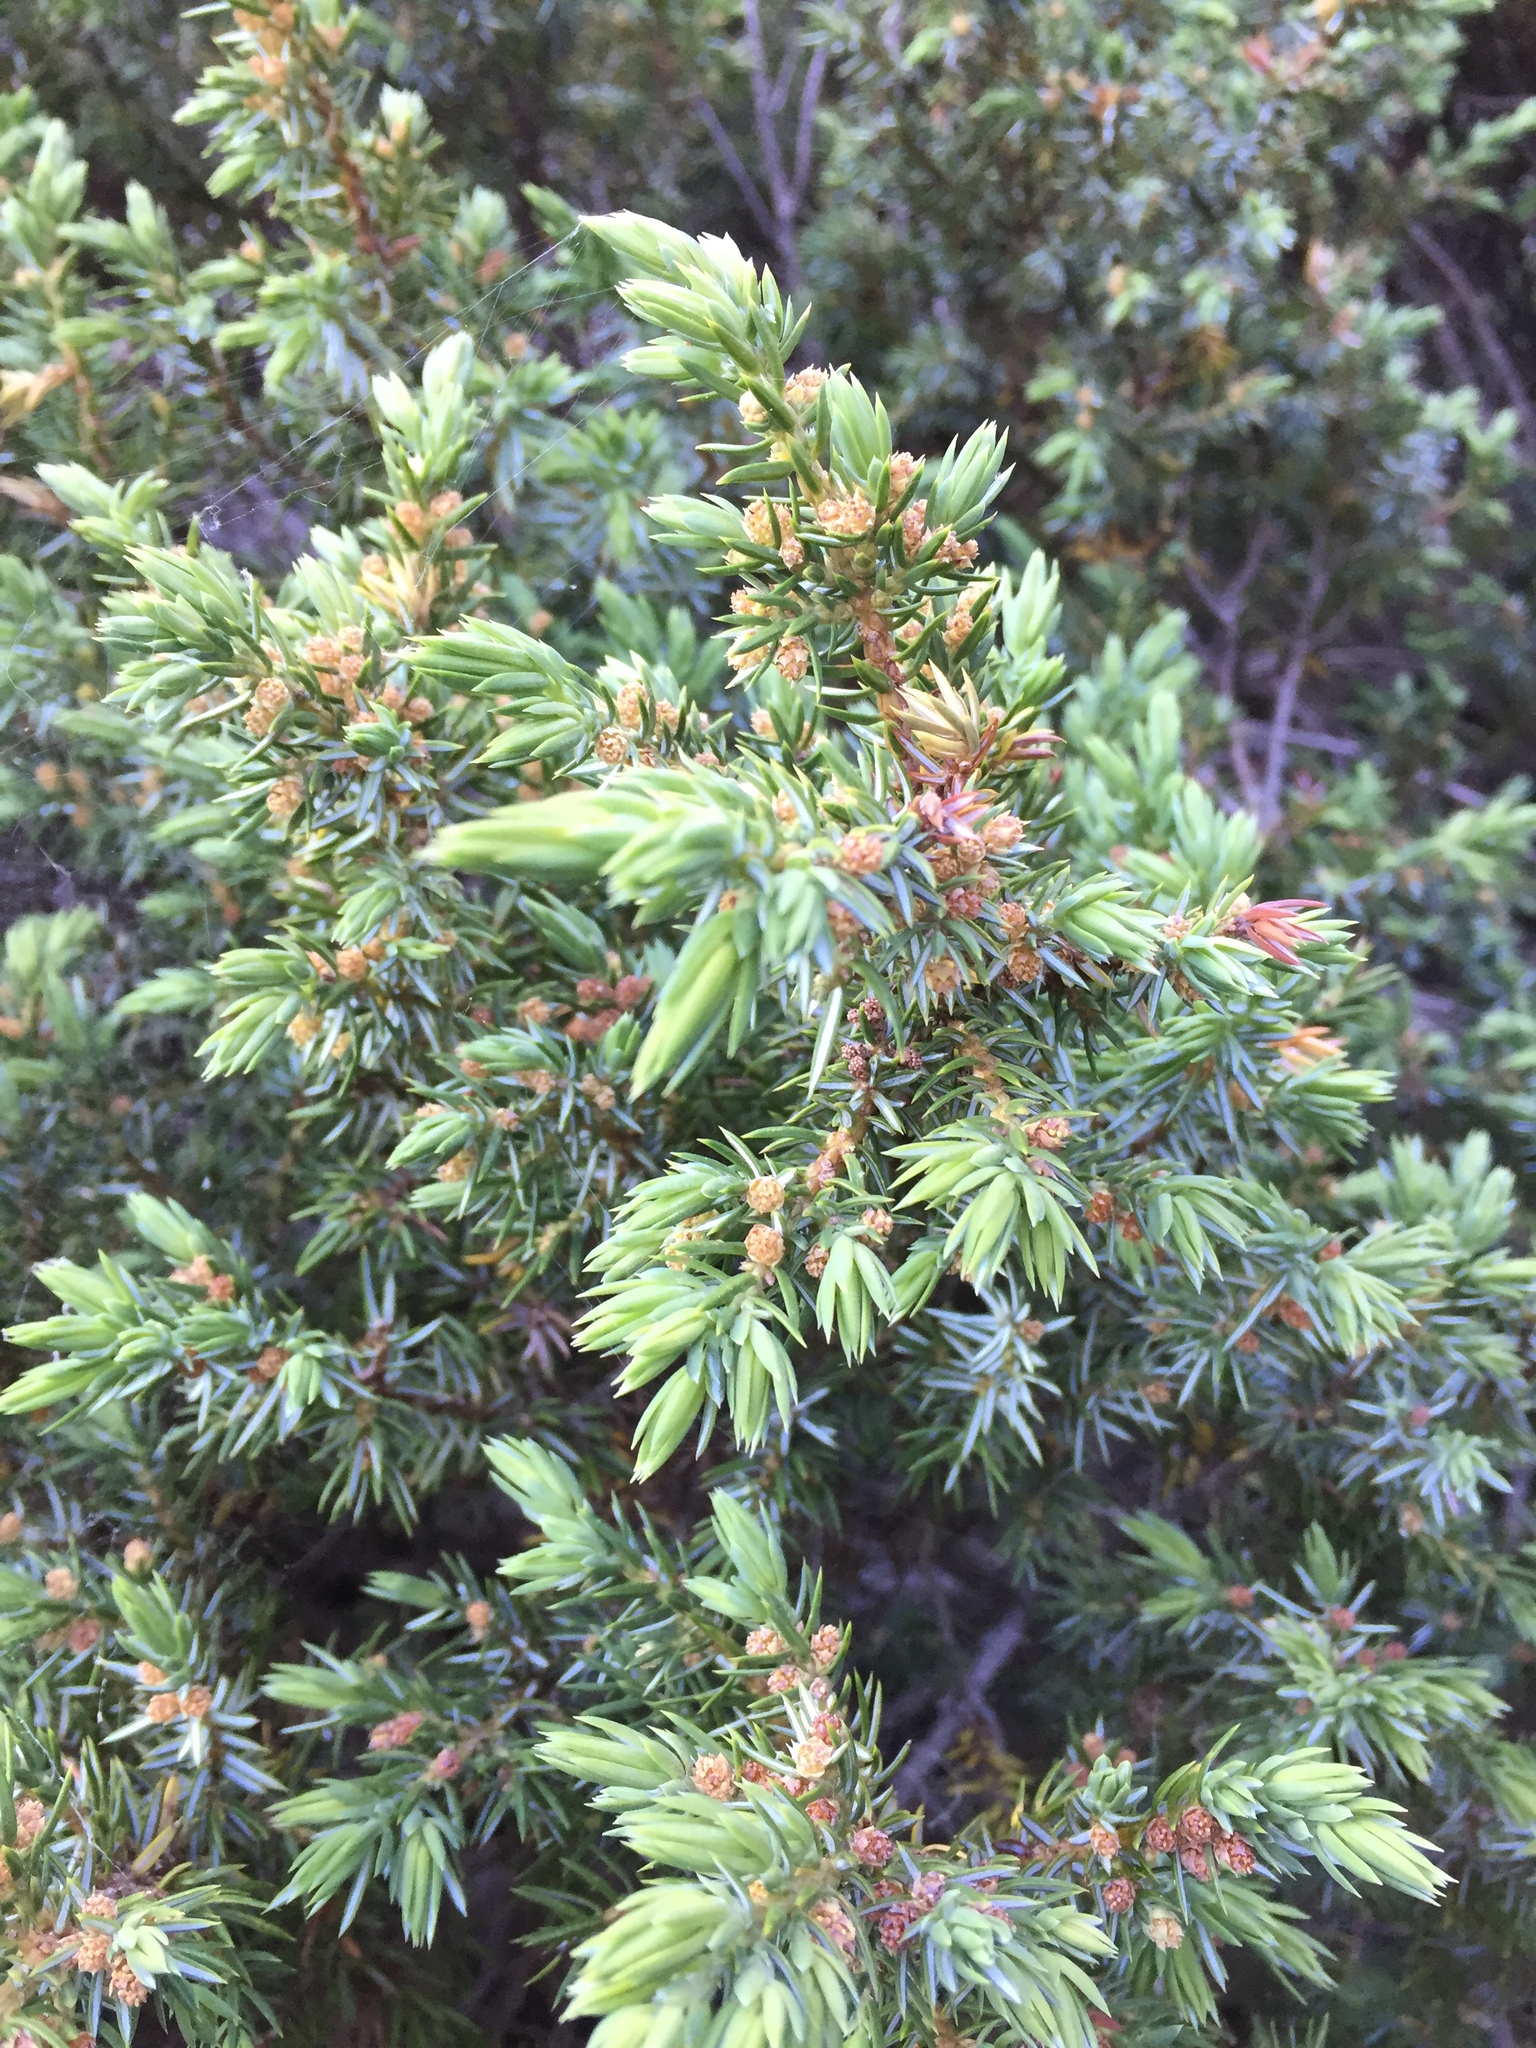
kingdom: Plantae
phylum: Tracheophyta
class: Pinopsida
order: Pinales
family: Cupressaceae
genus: Juniperus
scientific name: Juniperus communis
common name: Common juniper
